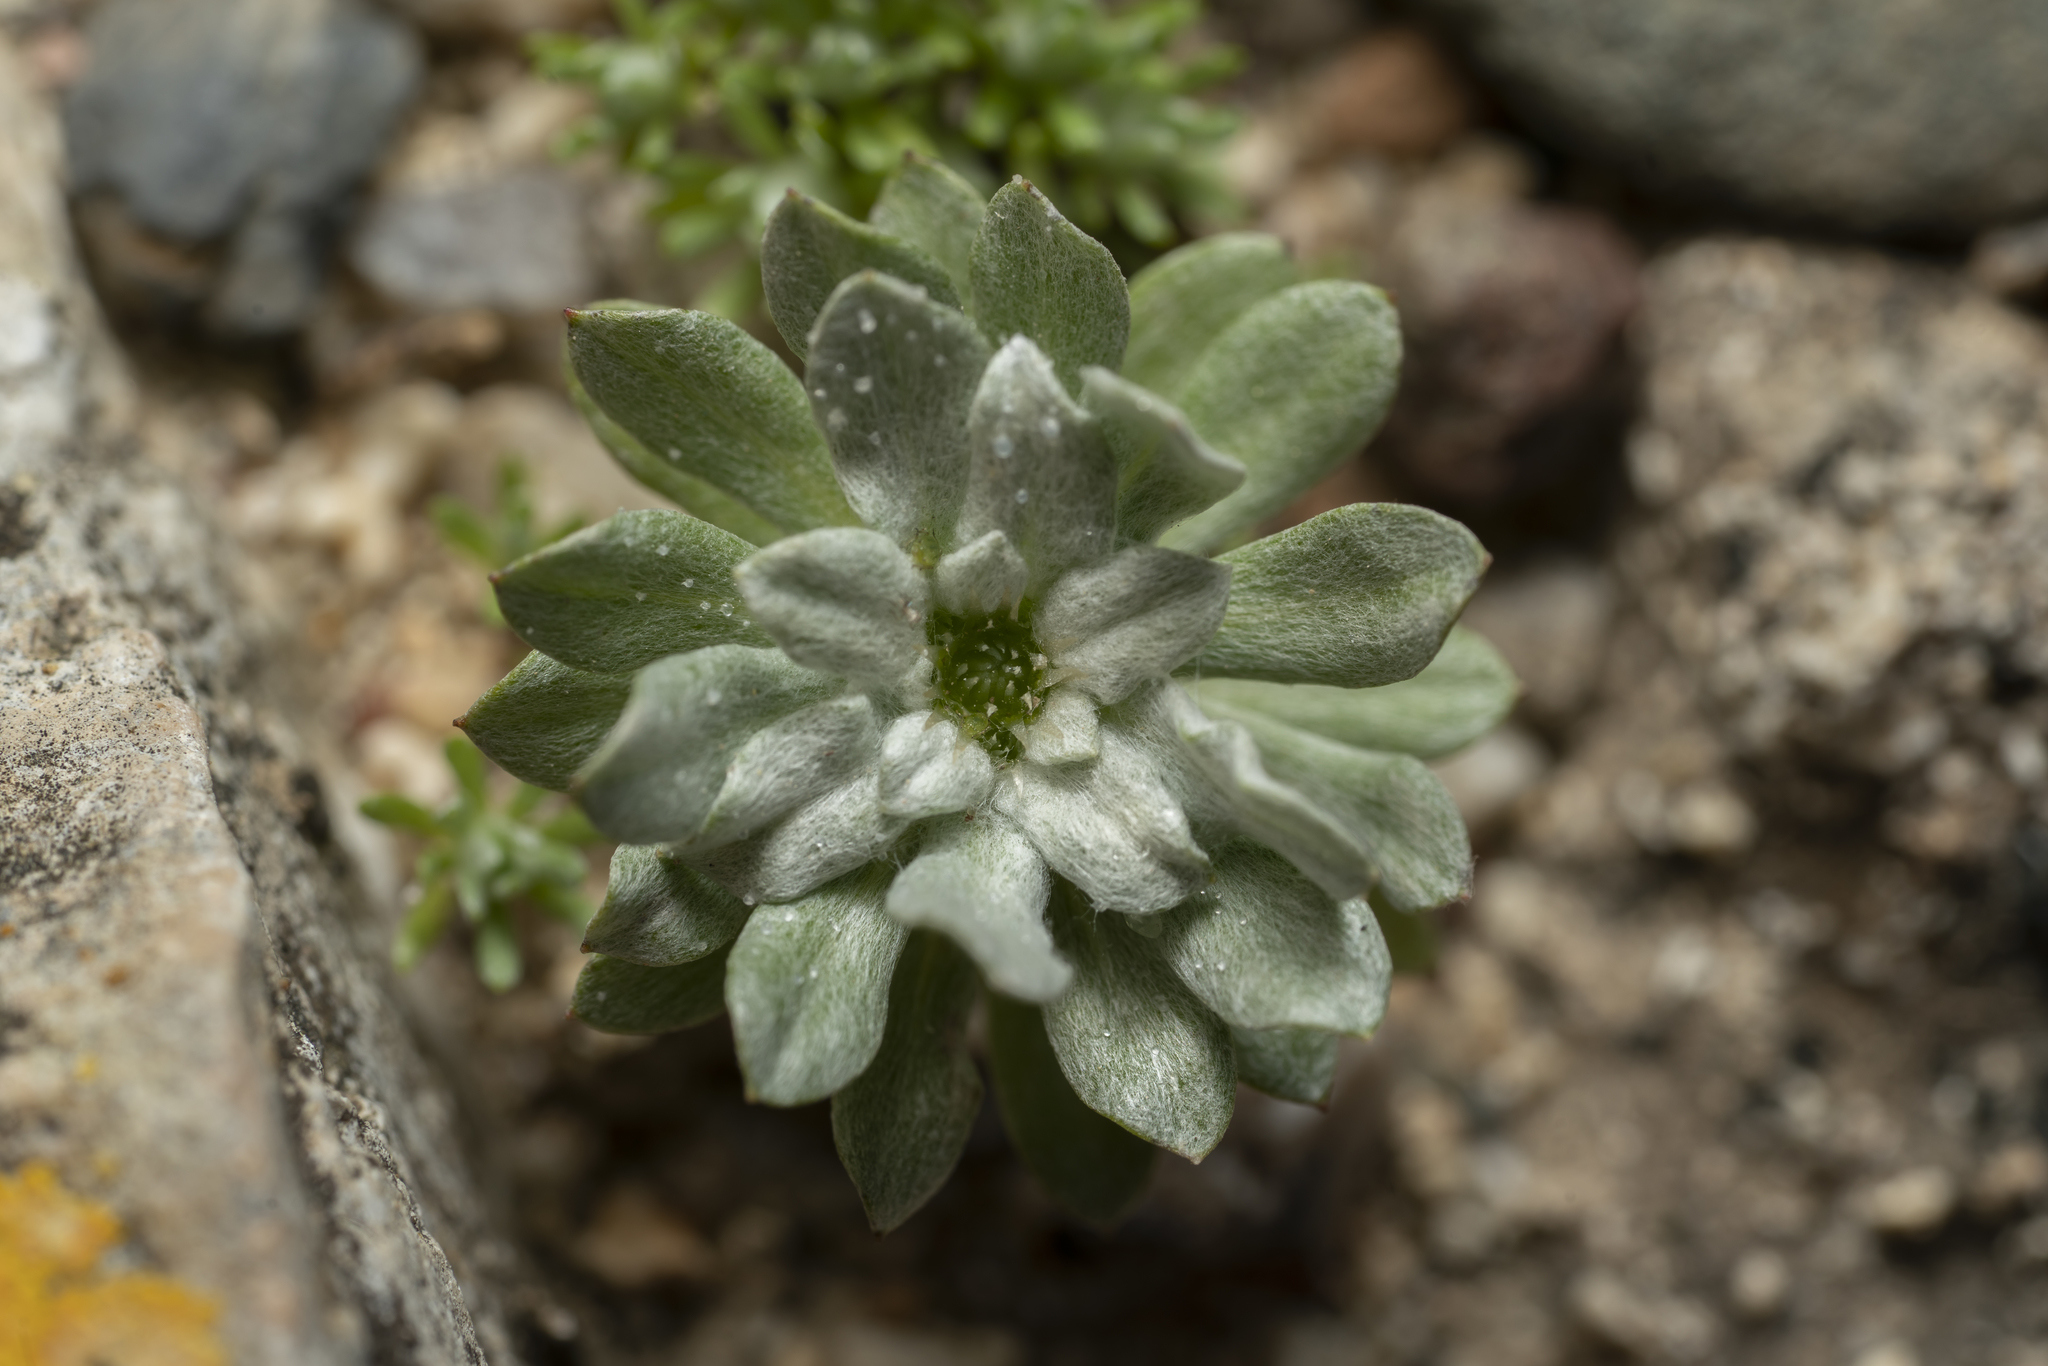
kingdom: Plantae
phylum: Tracheophyta
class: Magnoliopsida
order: Asterales
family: Asteraceae
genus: Filago
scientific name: Filago pygmaea
